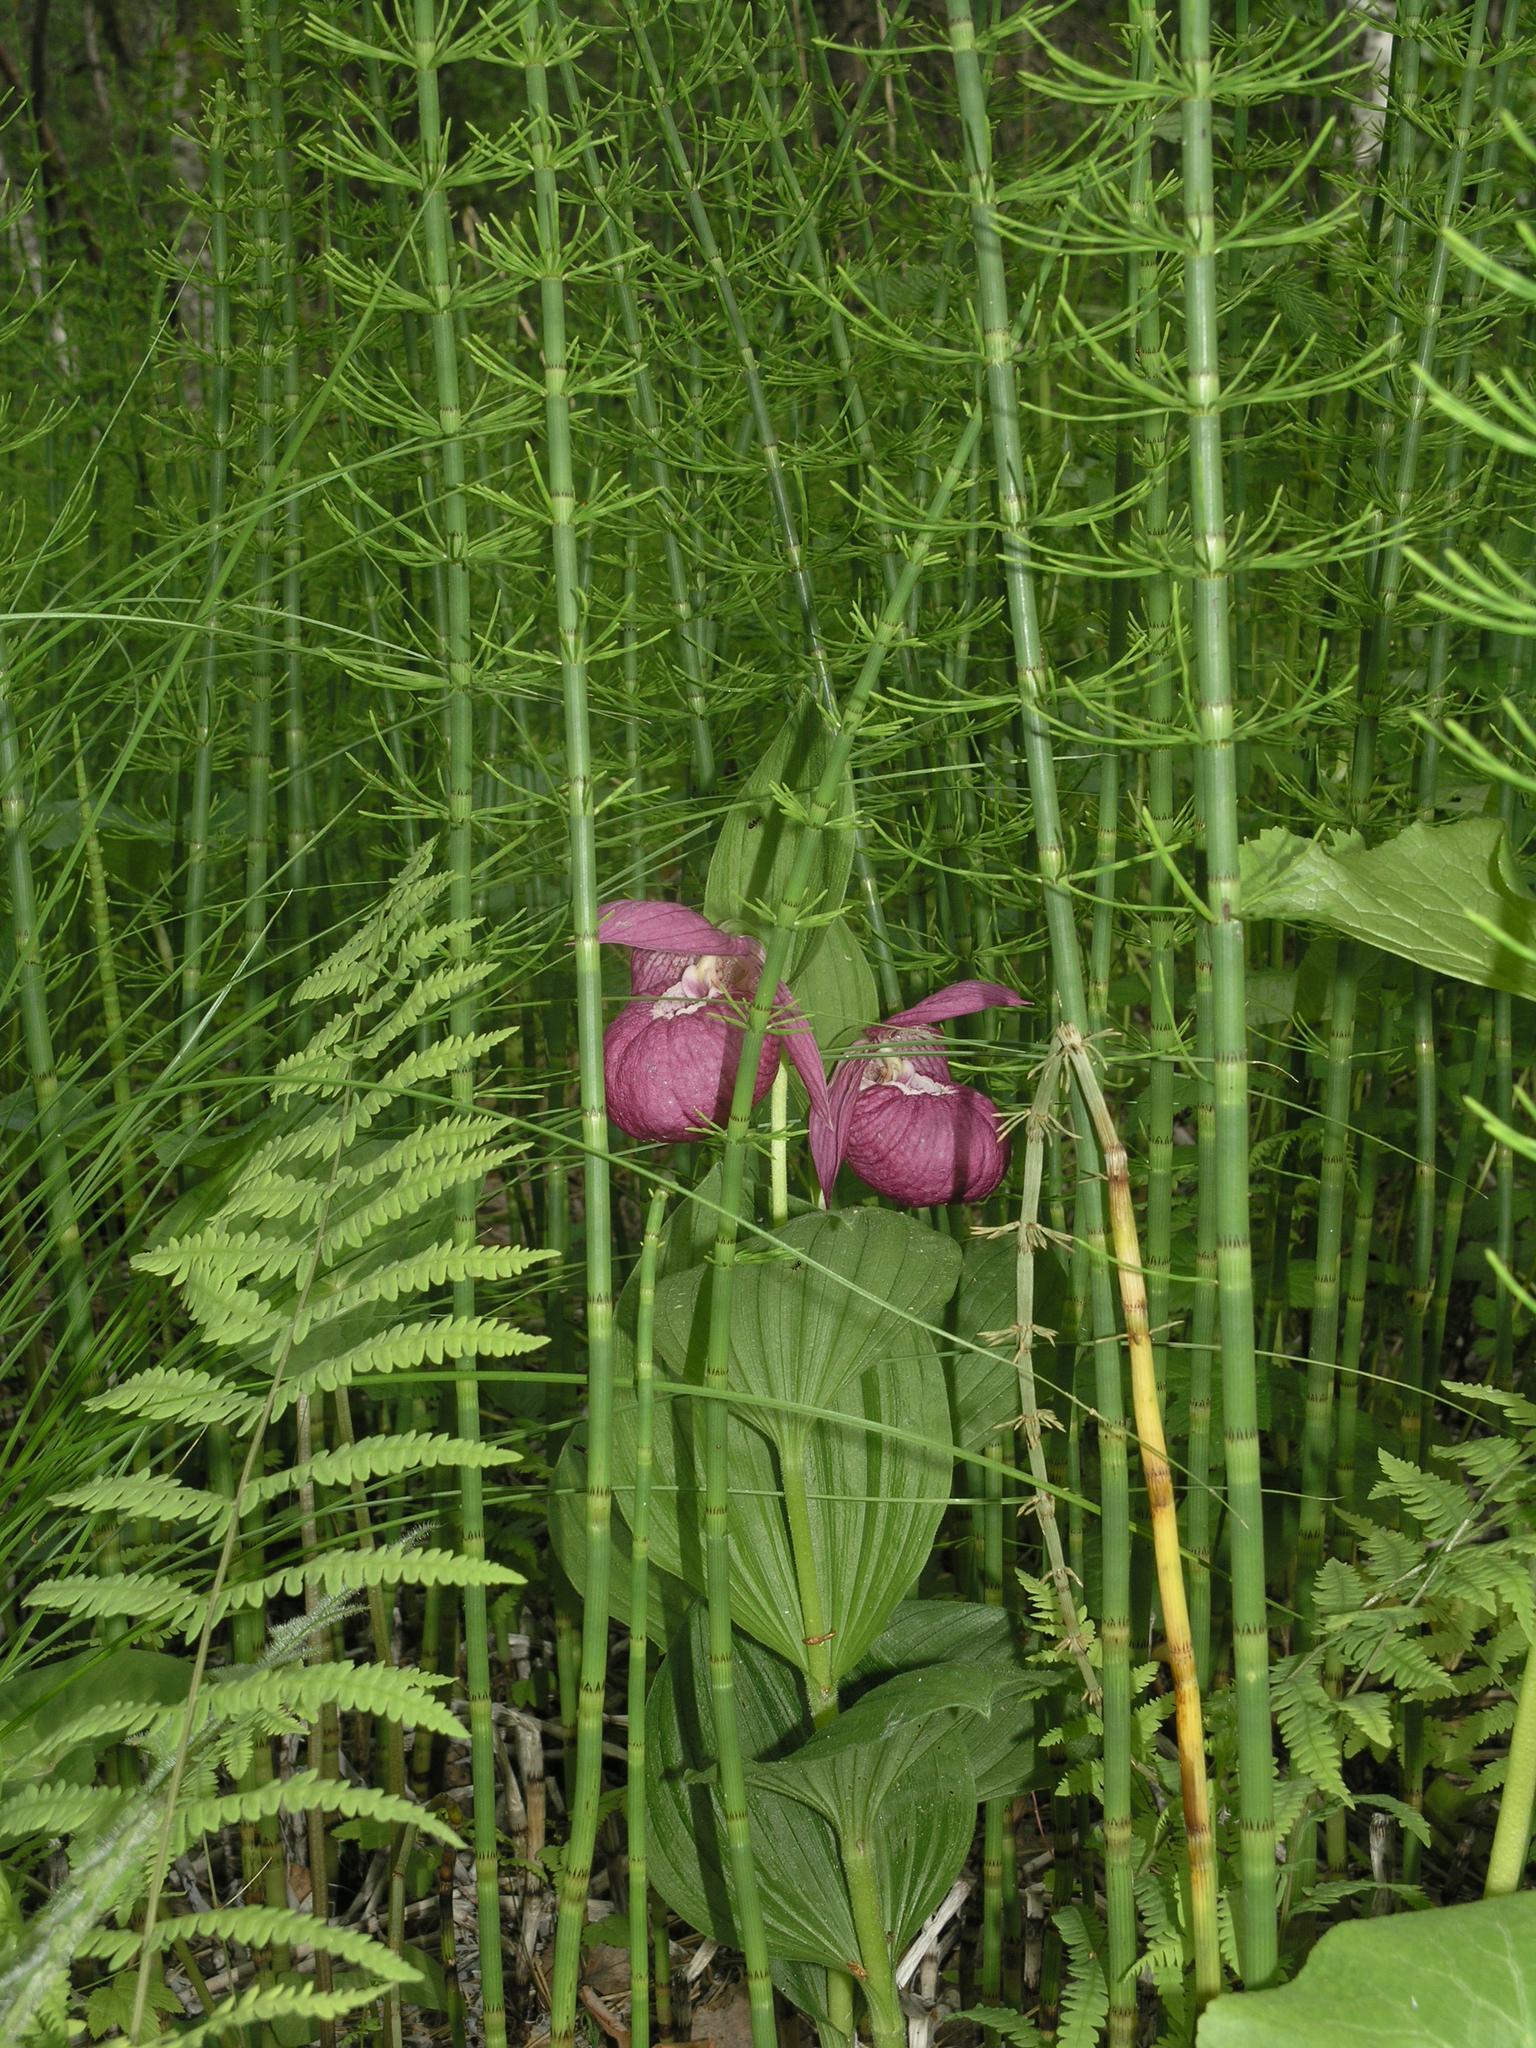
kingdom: Plantae
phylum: Tracheophyta
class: Liliopsida
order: Asparagales
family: Orchidaceae
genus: Cypripedium
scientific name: Cypripedium macranthos
